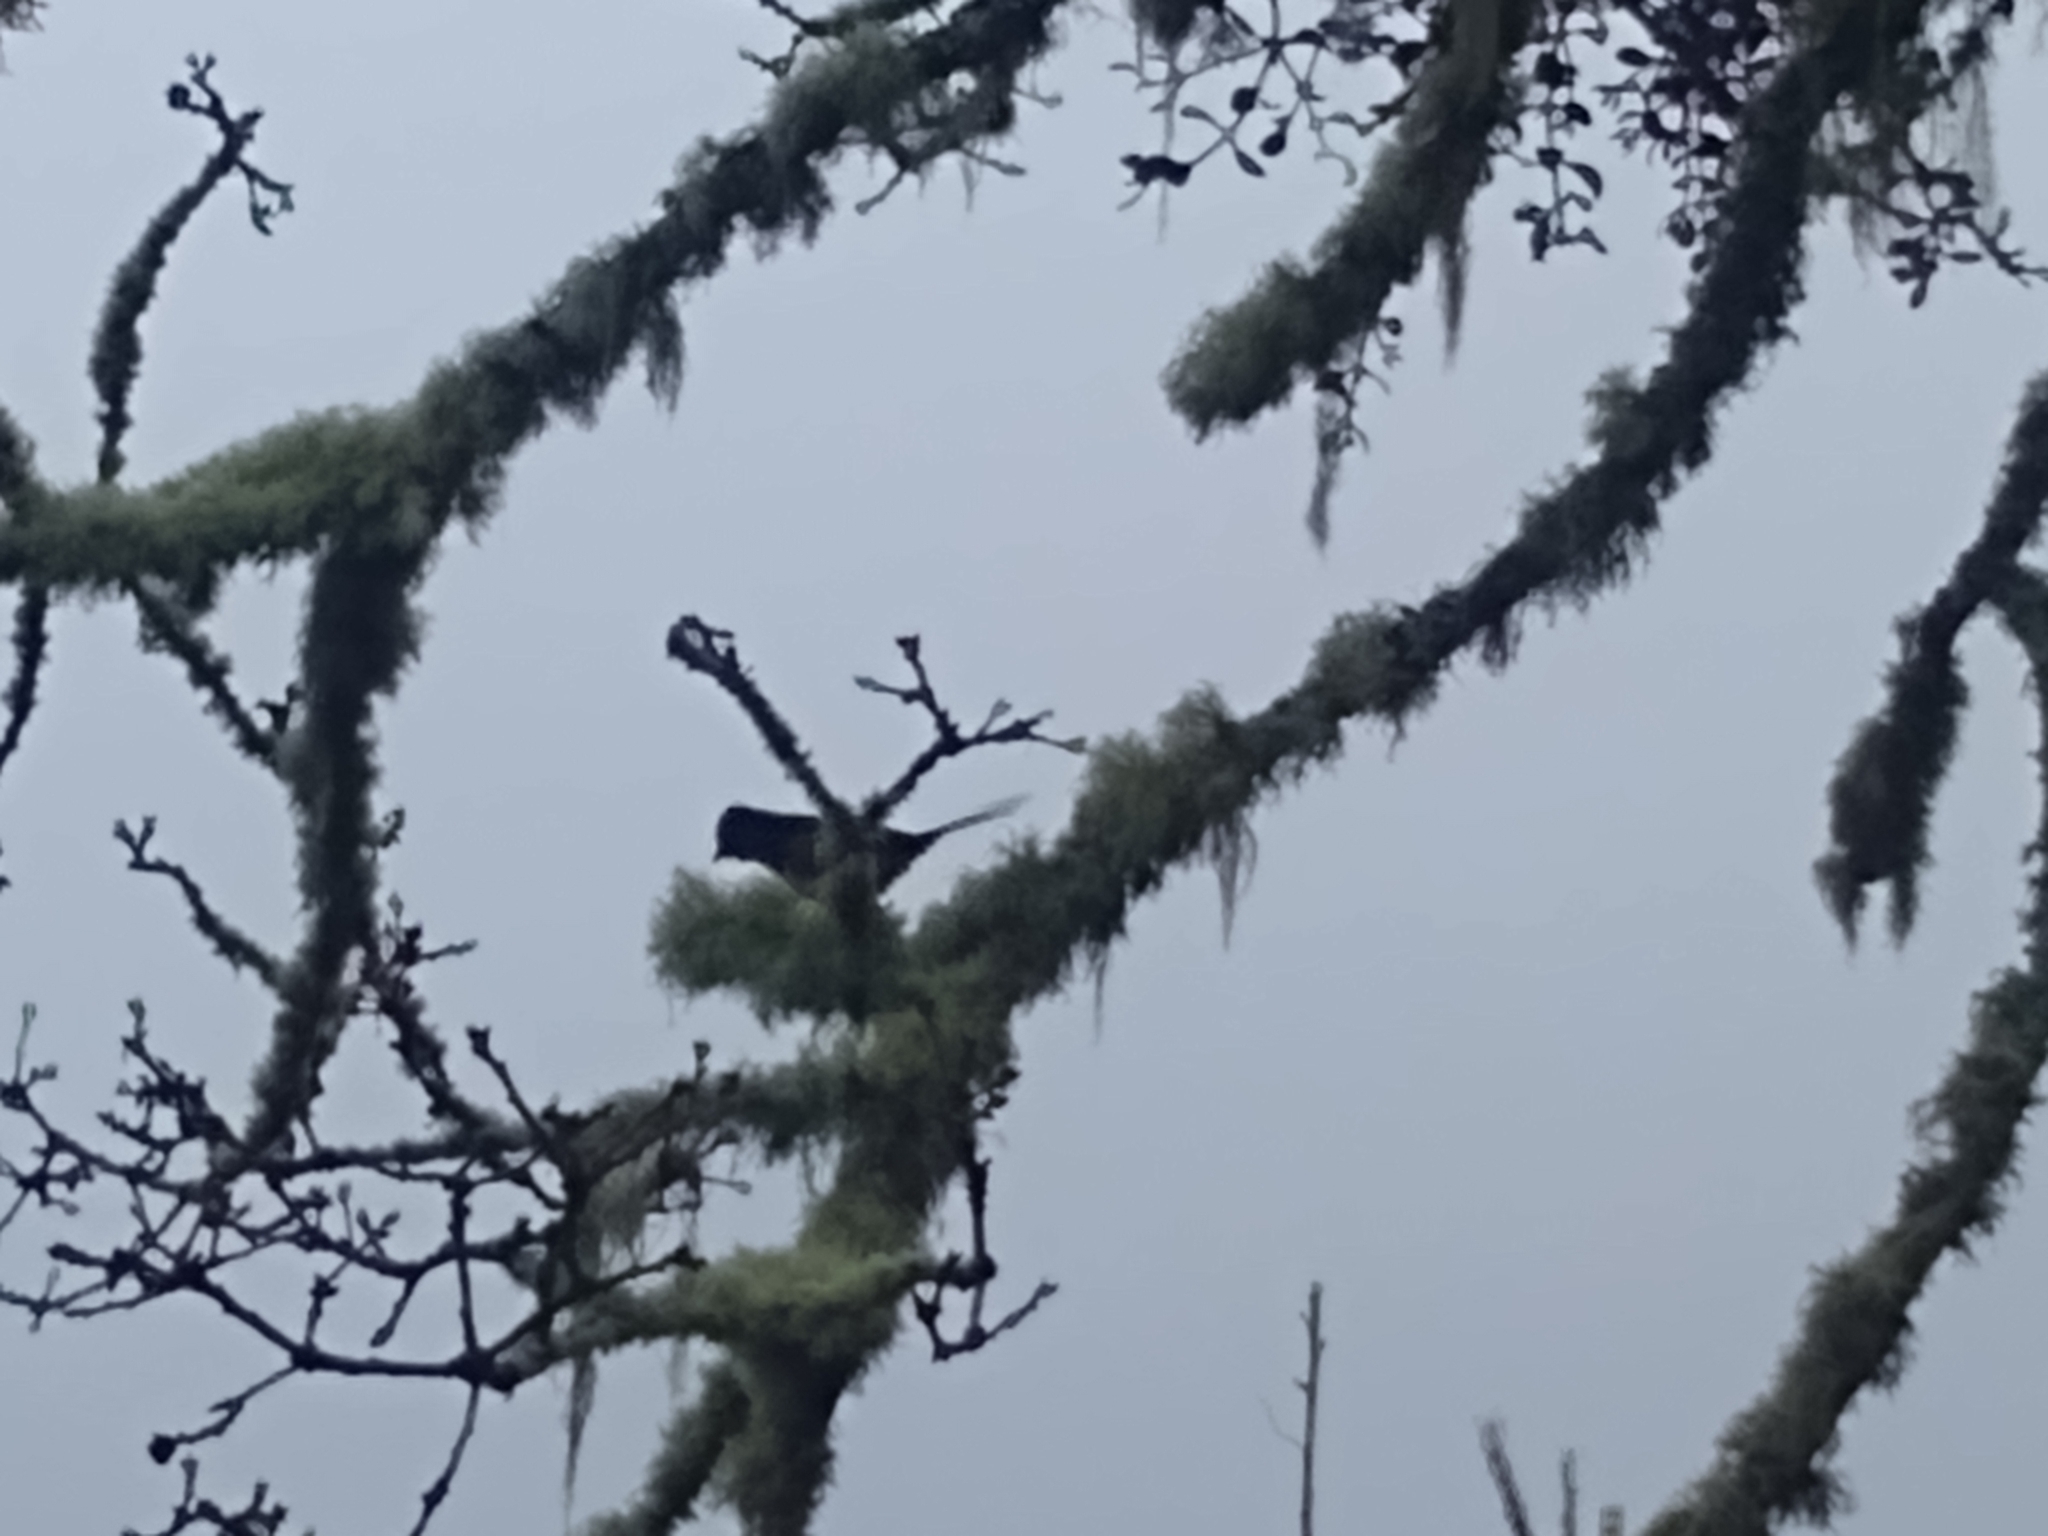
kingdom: Animalia
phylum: Chordata
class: Aves
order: Passeriformes
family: Passerellidae
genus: Pipilo
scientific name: Pipilo maculatus
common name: Spotted towhee
